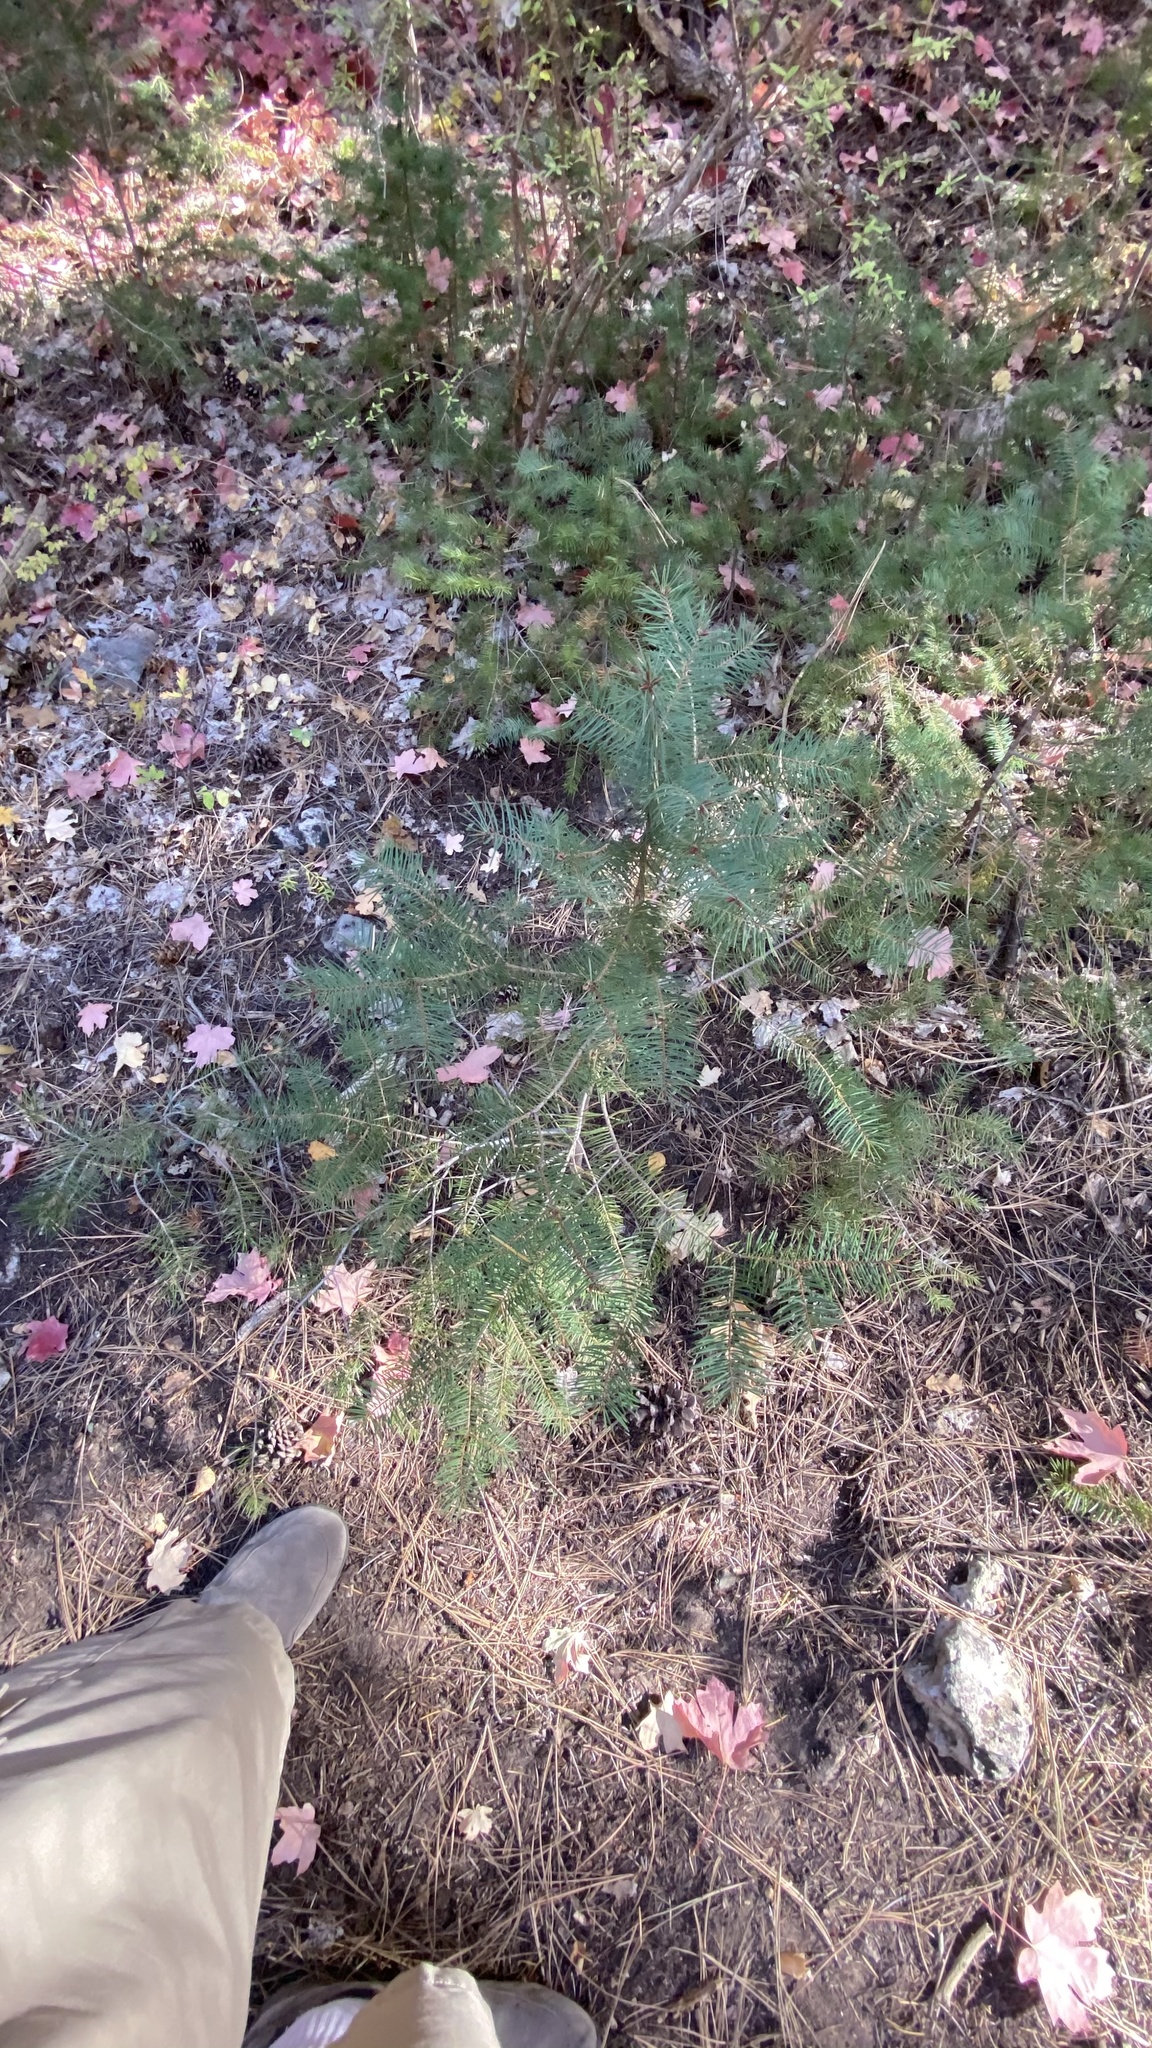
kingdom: Plantae
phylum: Tracheophyta
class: Pinopsida
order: Pinales
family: Pinaceae
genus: Abies
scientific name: Abies concolor
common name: Colorado fir
